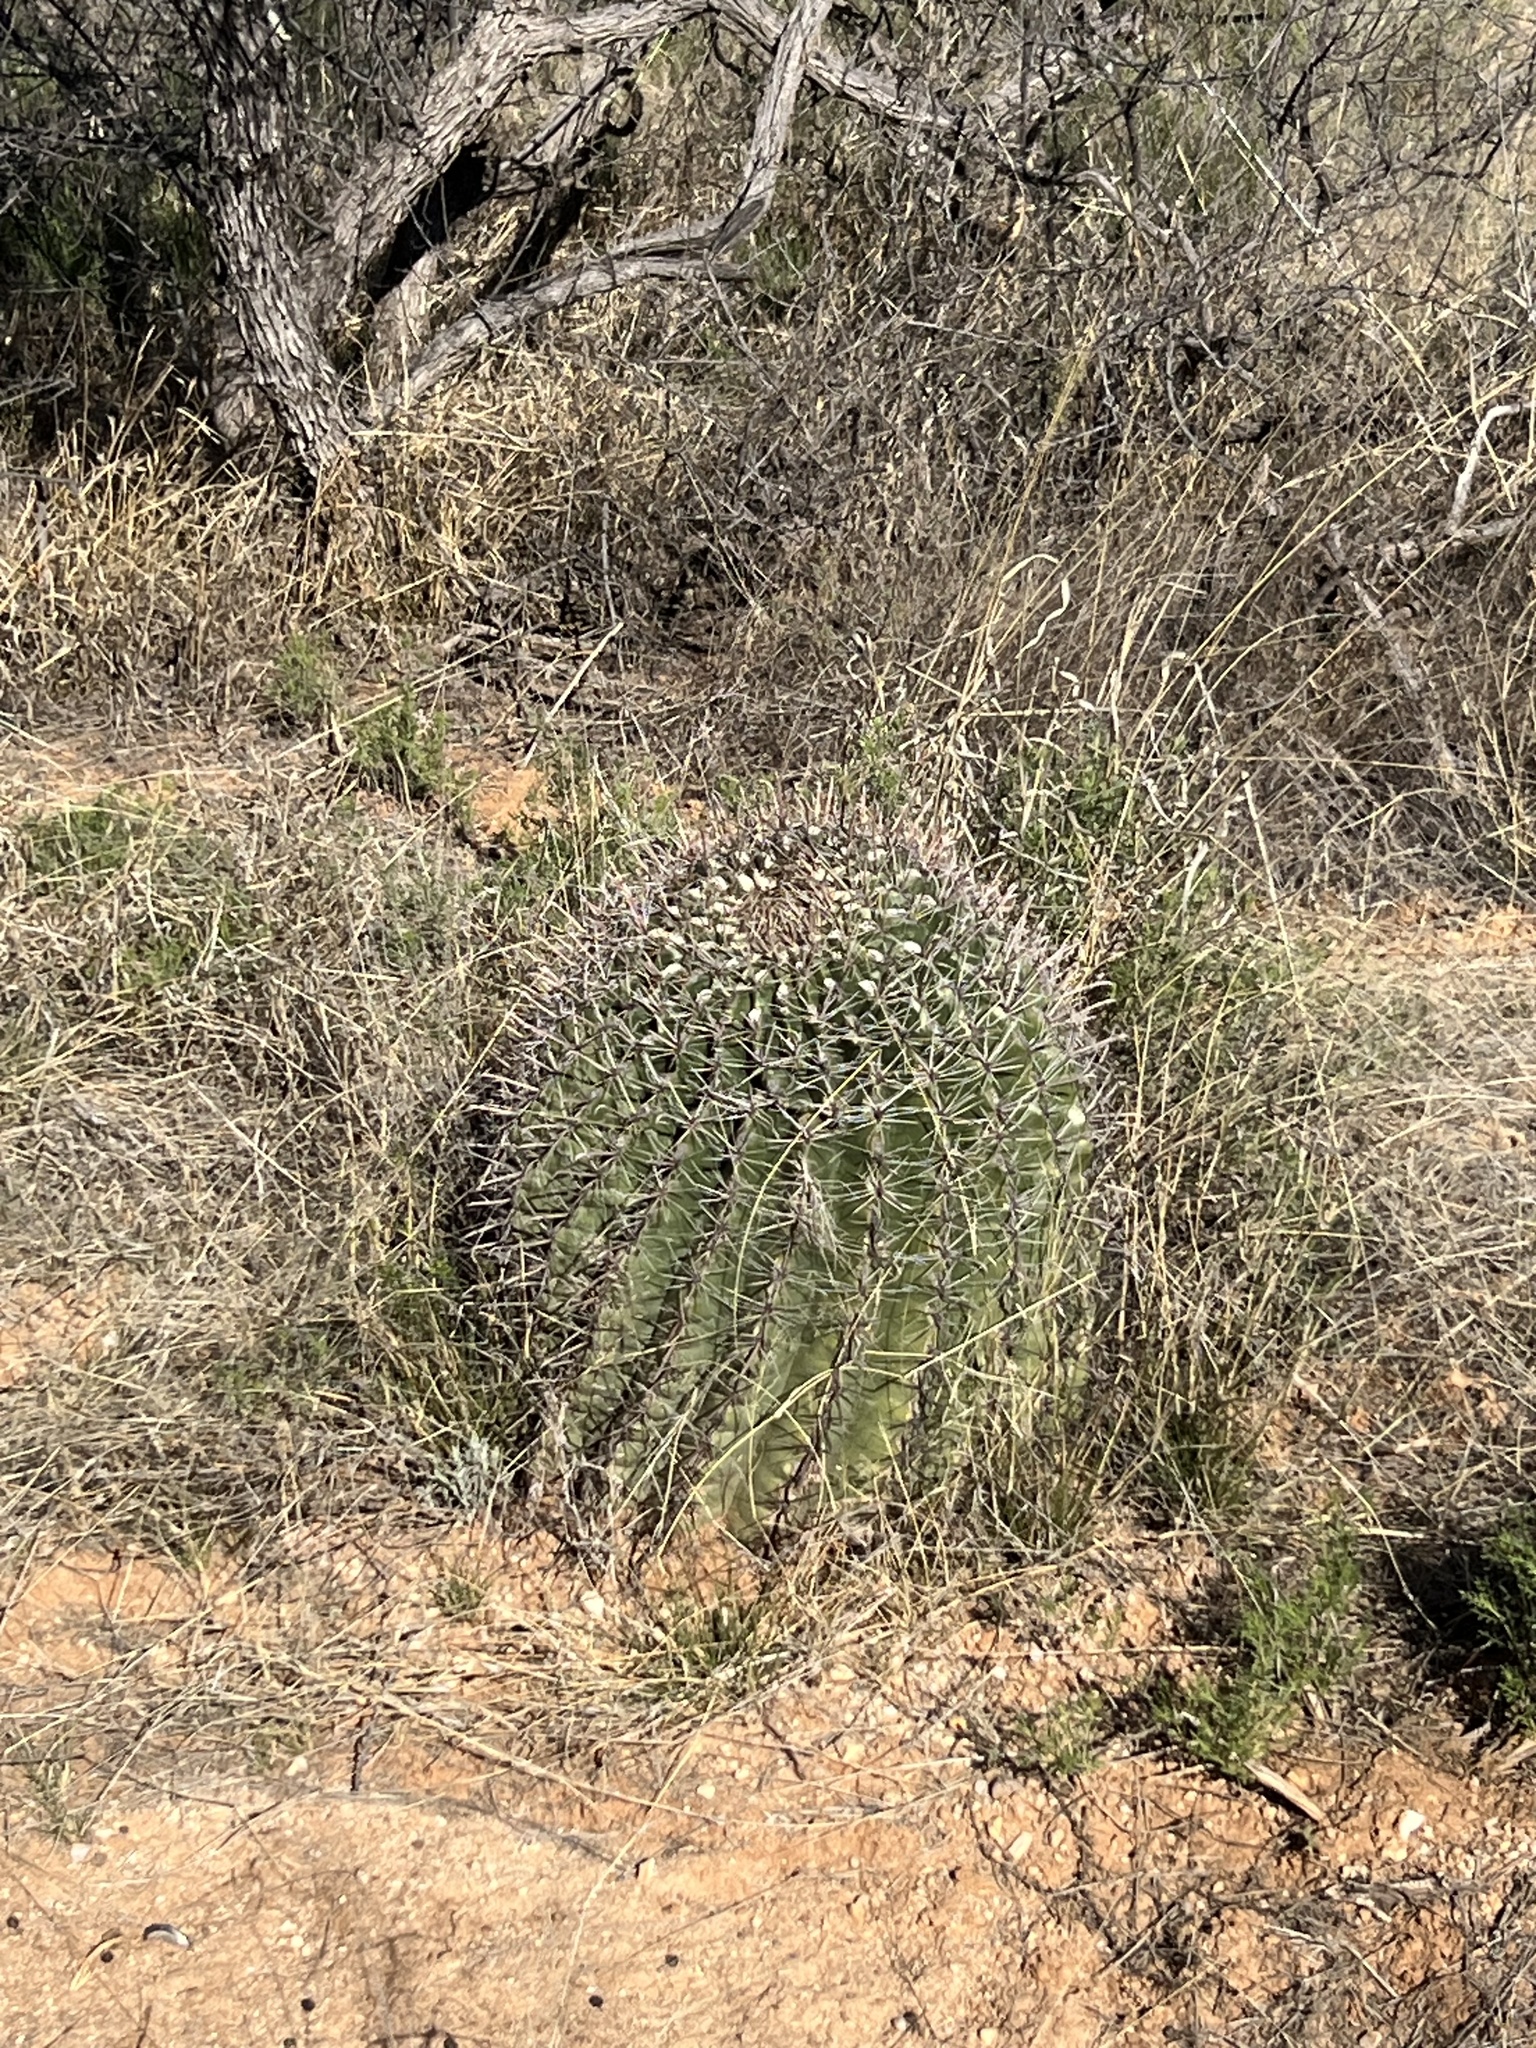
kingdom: Plantae
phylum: Tracheophyta
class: Magnoliopsida
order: Caryophyllales
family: Cactaceae
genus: Ferocactus
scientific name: Ferocactus wislizeni
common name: Candy barrel cactus
